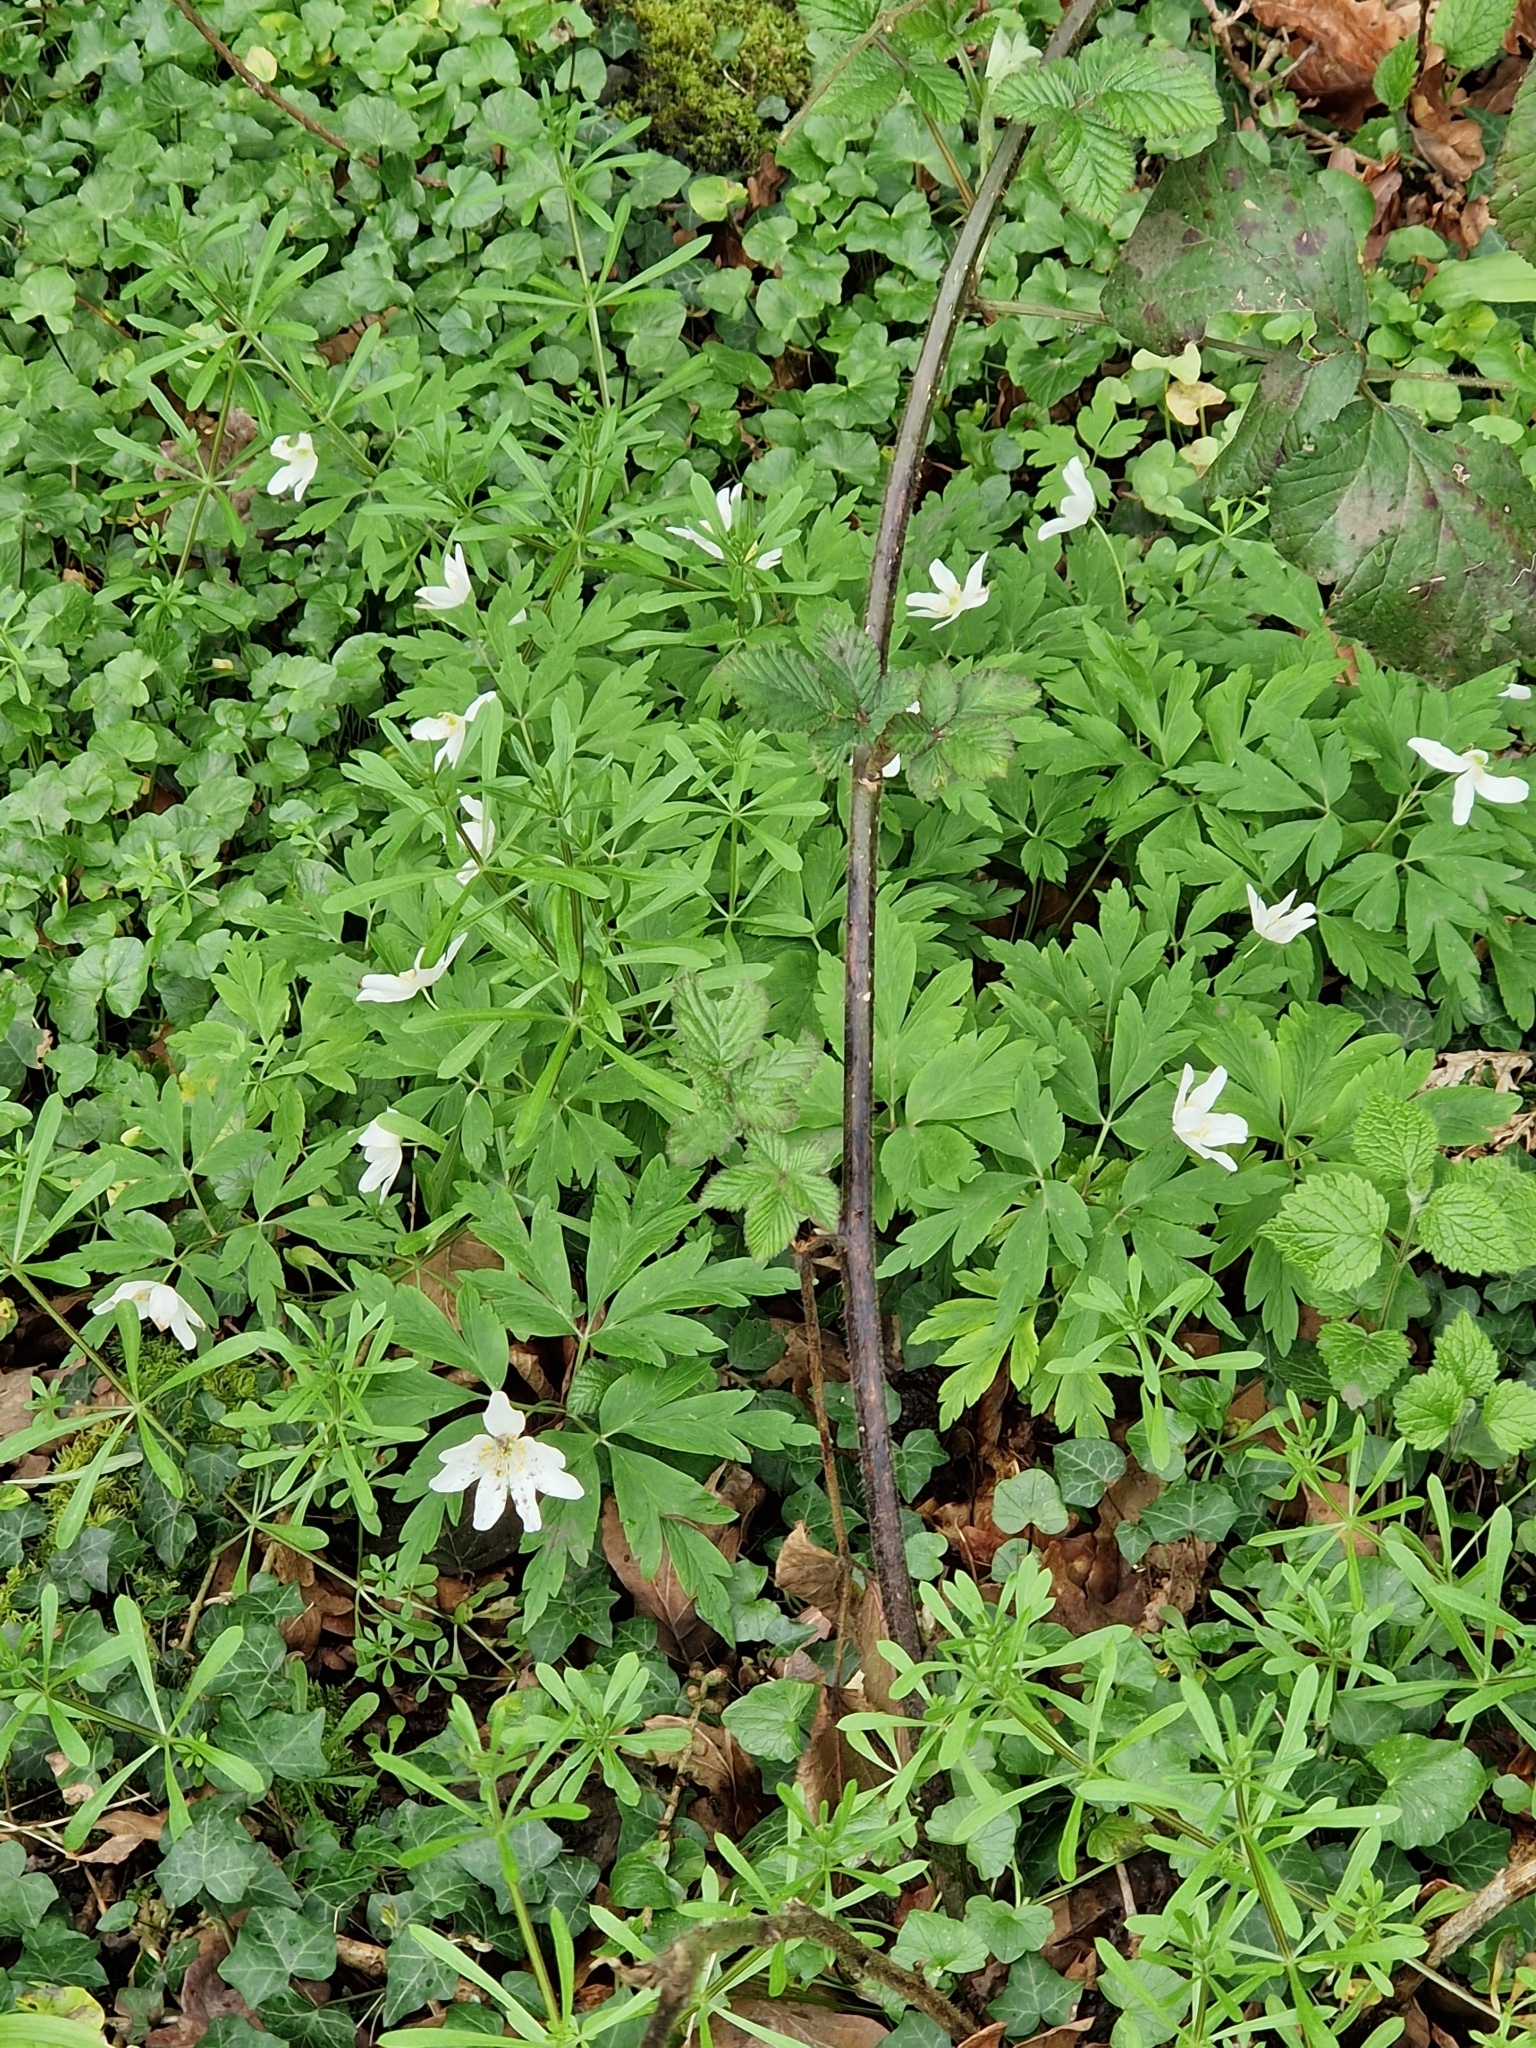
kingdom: Plantae
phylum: Tracheophyta
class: Magnoliopsida
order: Ranunculales
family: Ranunculaceae
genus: Anemone
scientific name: Anemone nemorosa
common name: Wood anemone
